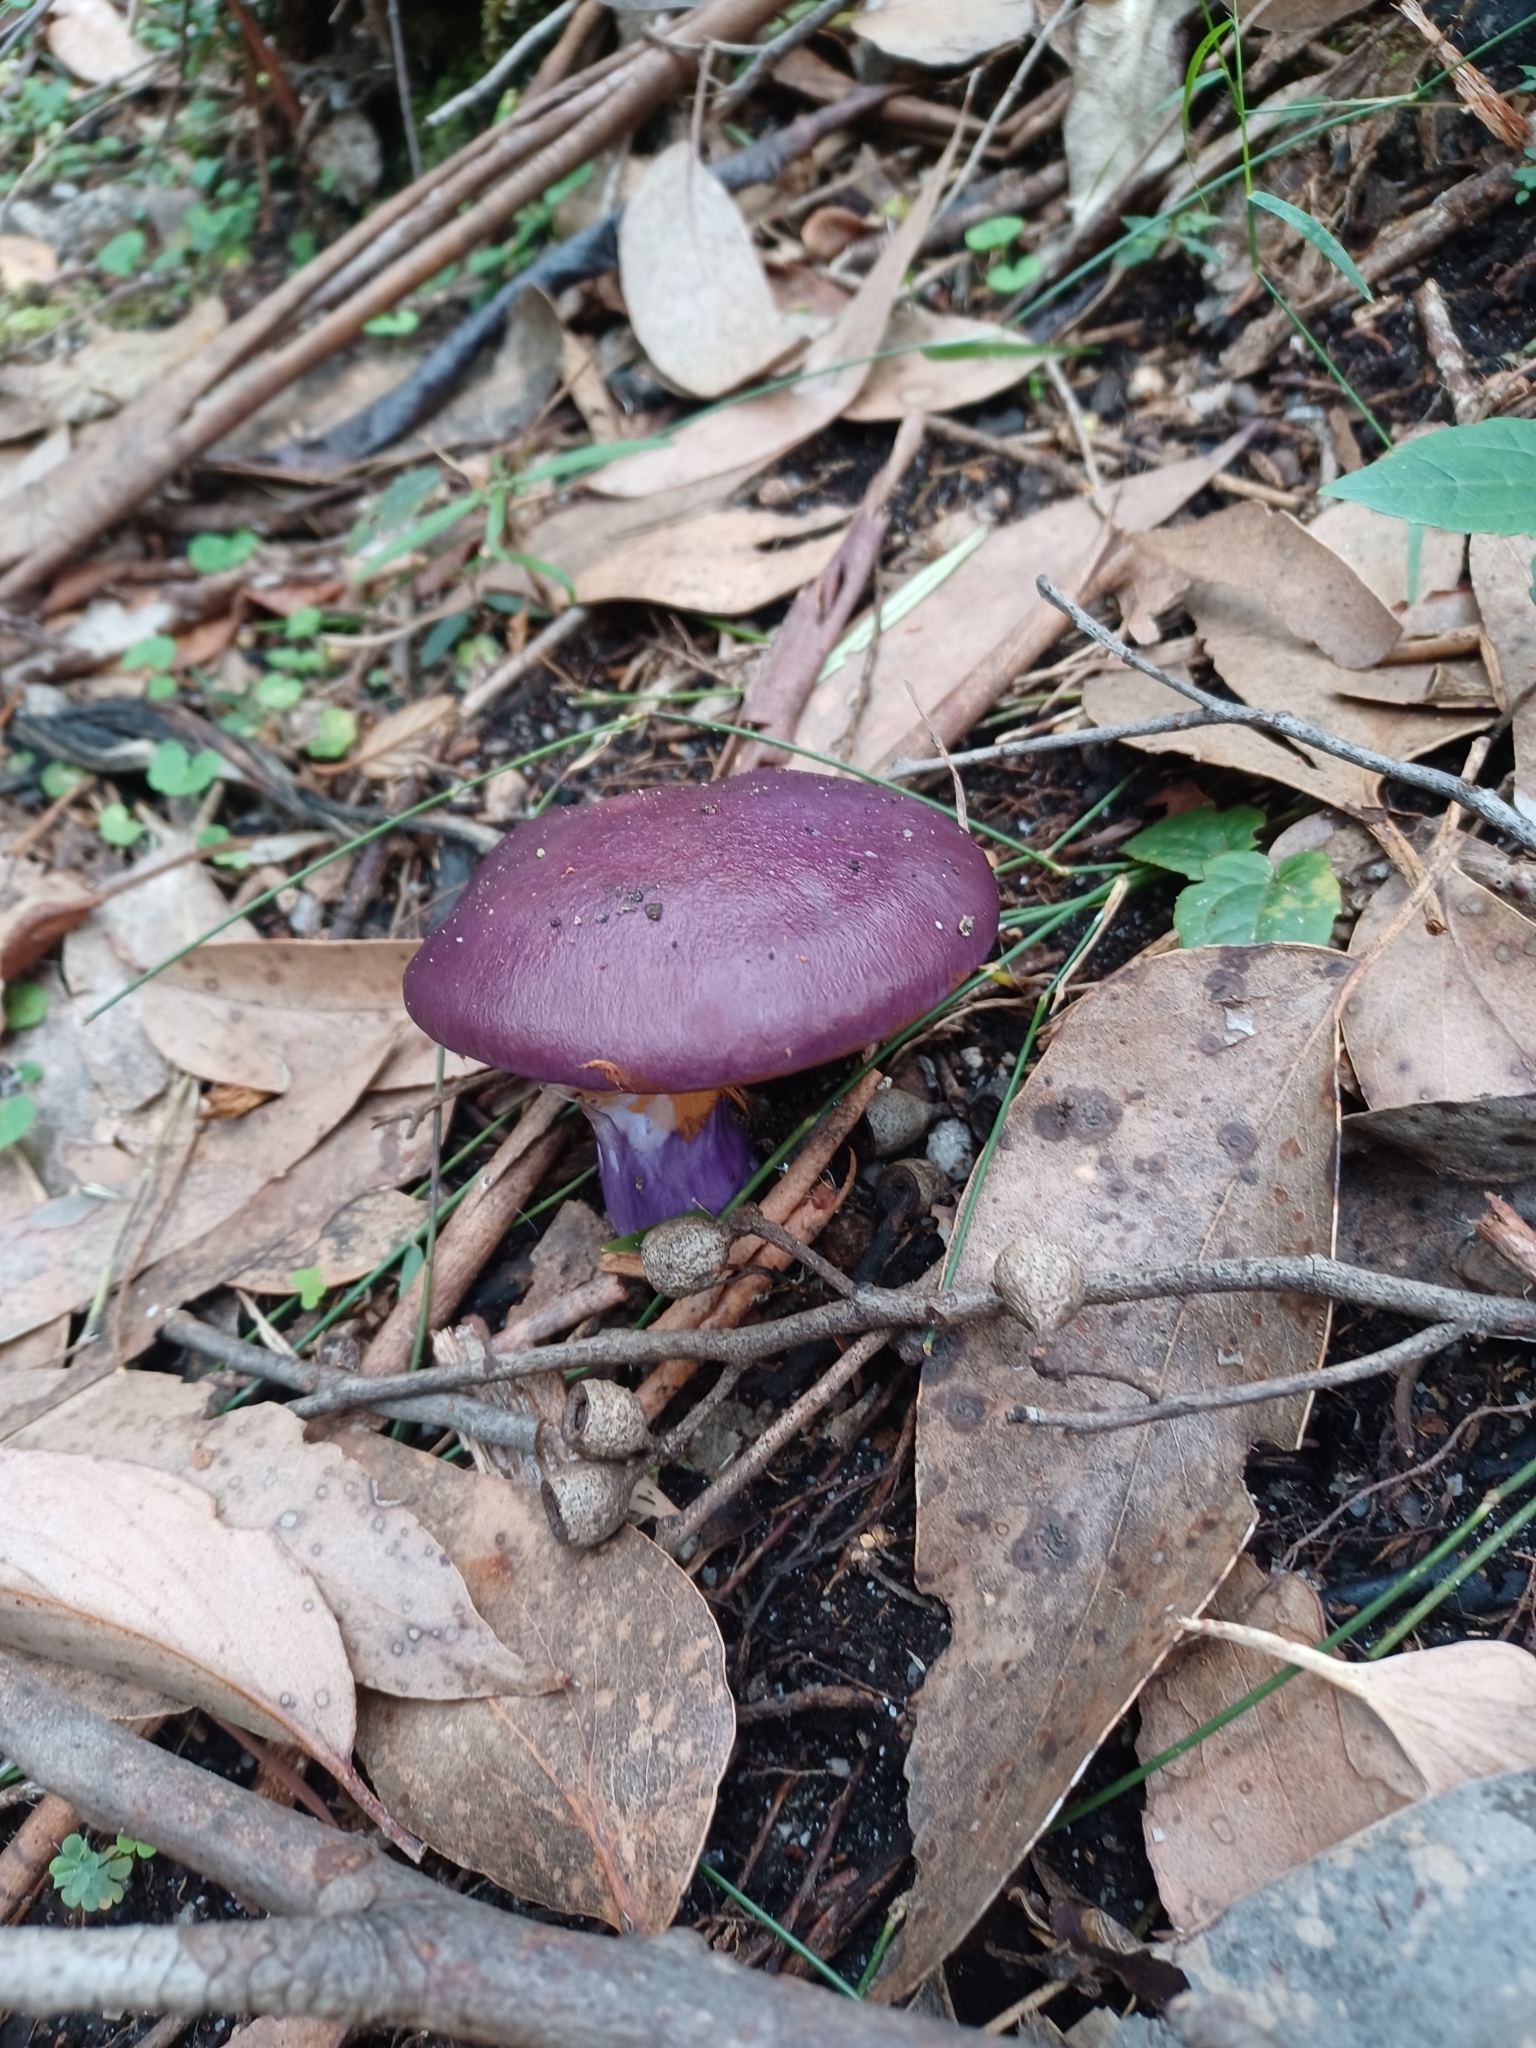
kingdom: Fungi
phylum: Basidiomycota
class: Agaricomycetes
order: Agaricales
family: Cortinariaceae
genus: Cortinarius
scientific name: Cortinarius archeri
